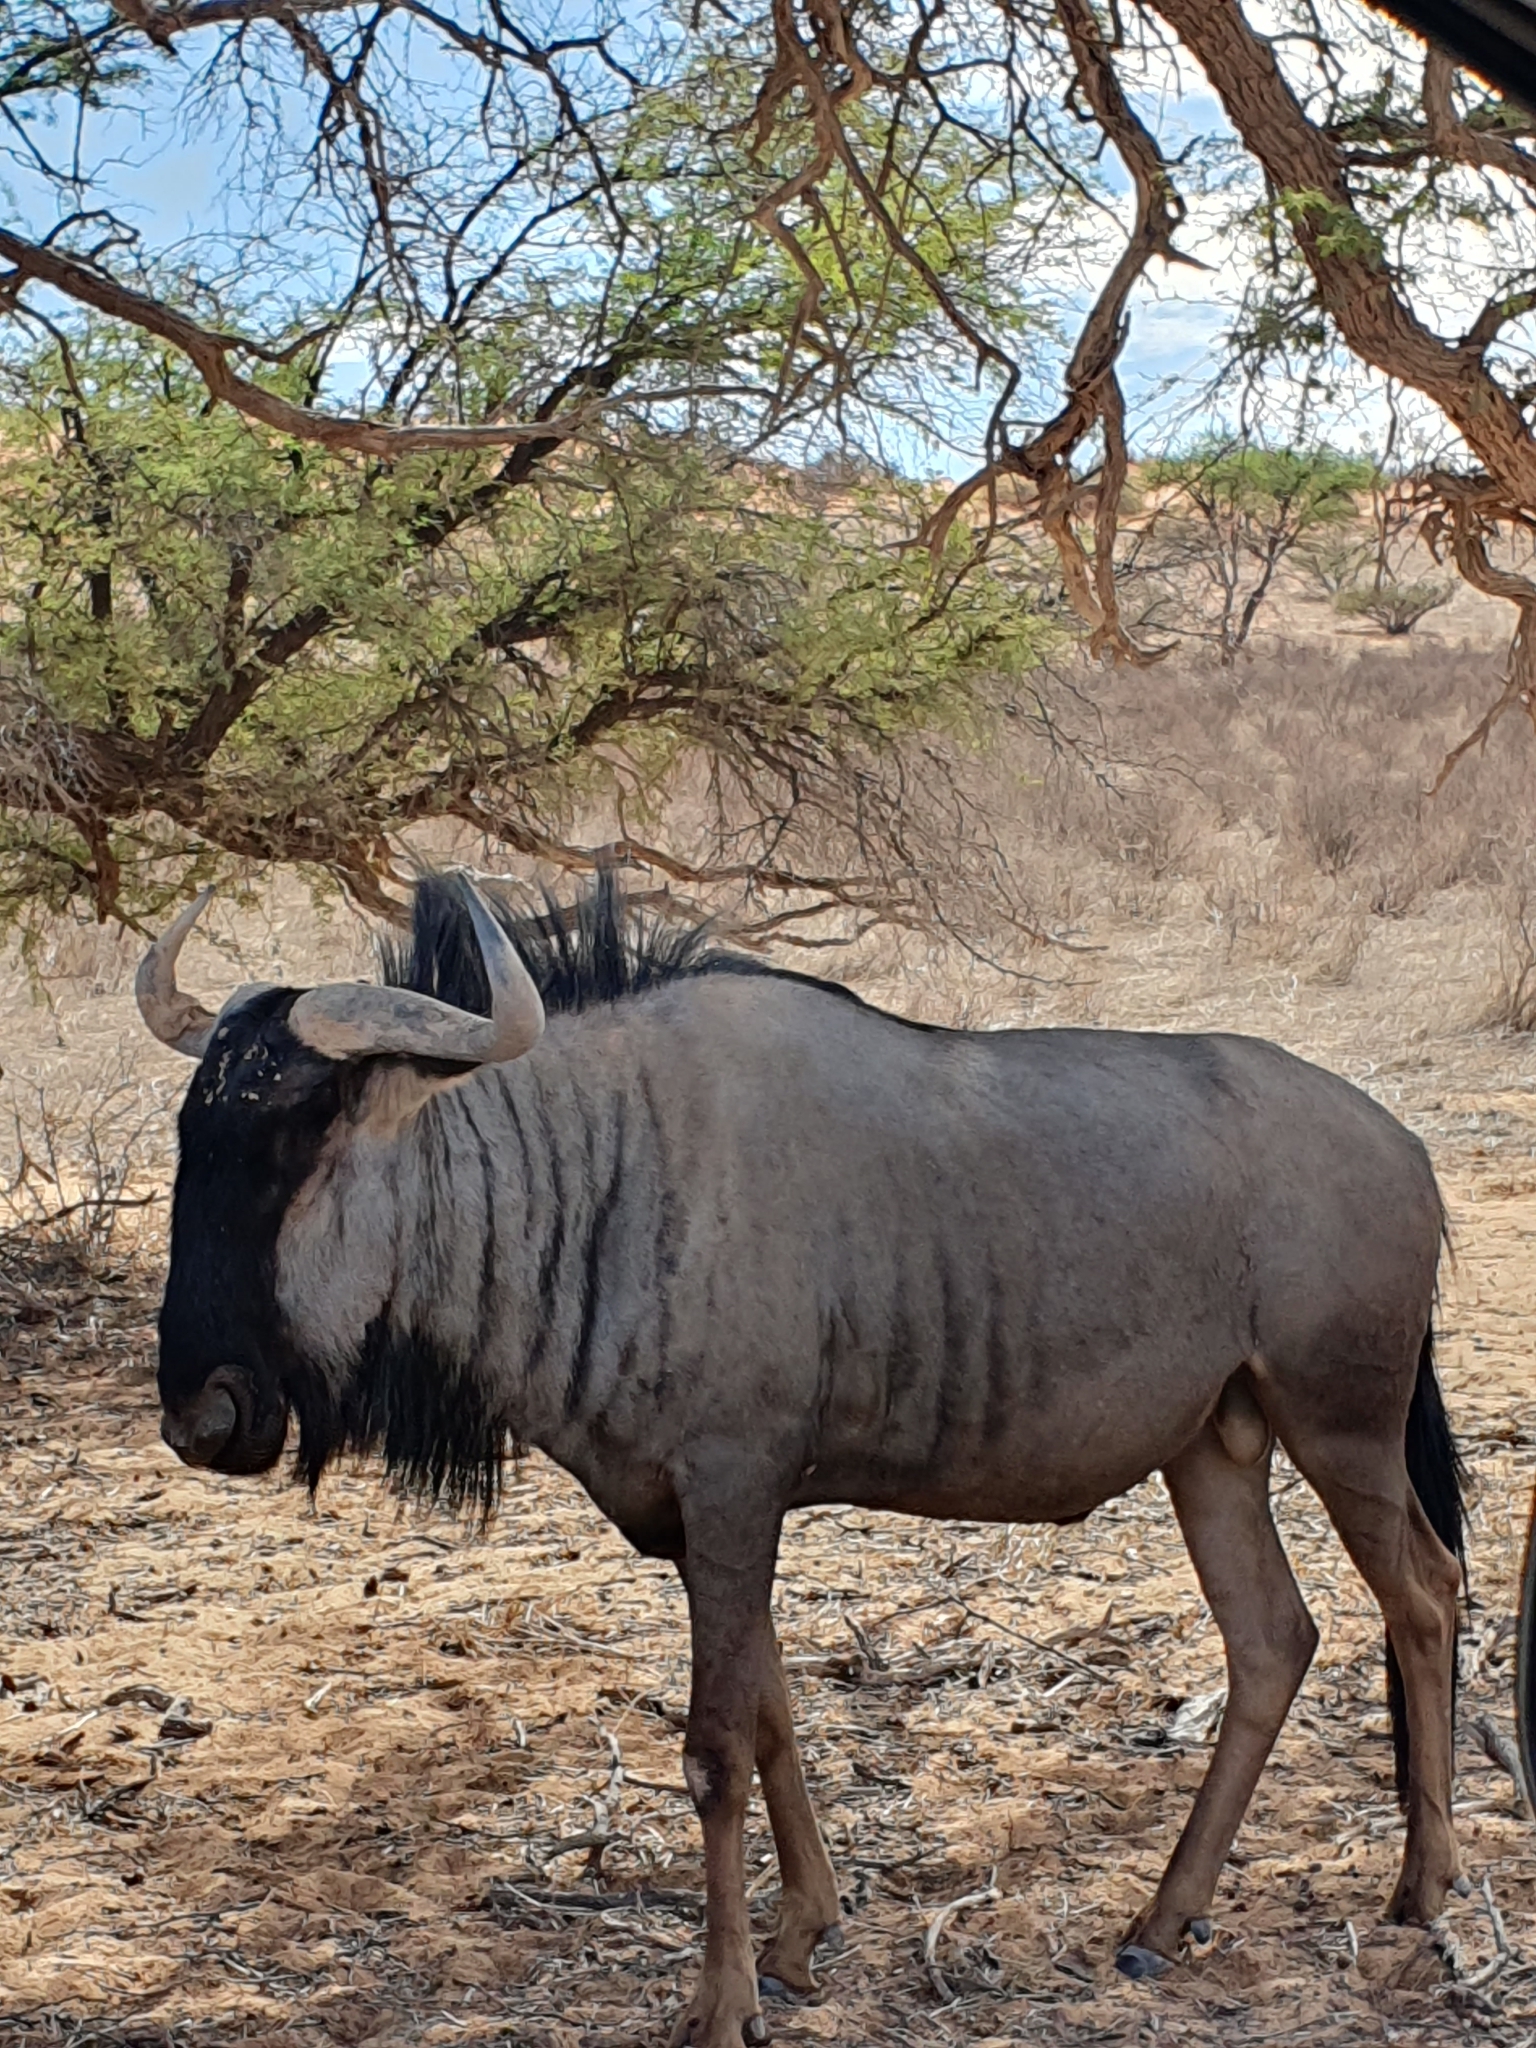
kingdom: Animalia
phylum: Chordata
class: Mammalia
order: Artiodactyla
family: Bovidae
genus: Connochaetes
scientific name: Connochaetes taurinus
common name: Blue wildebeest
